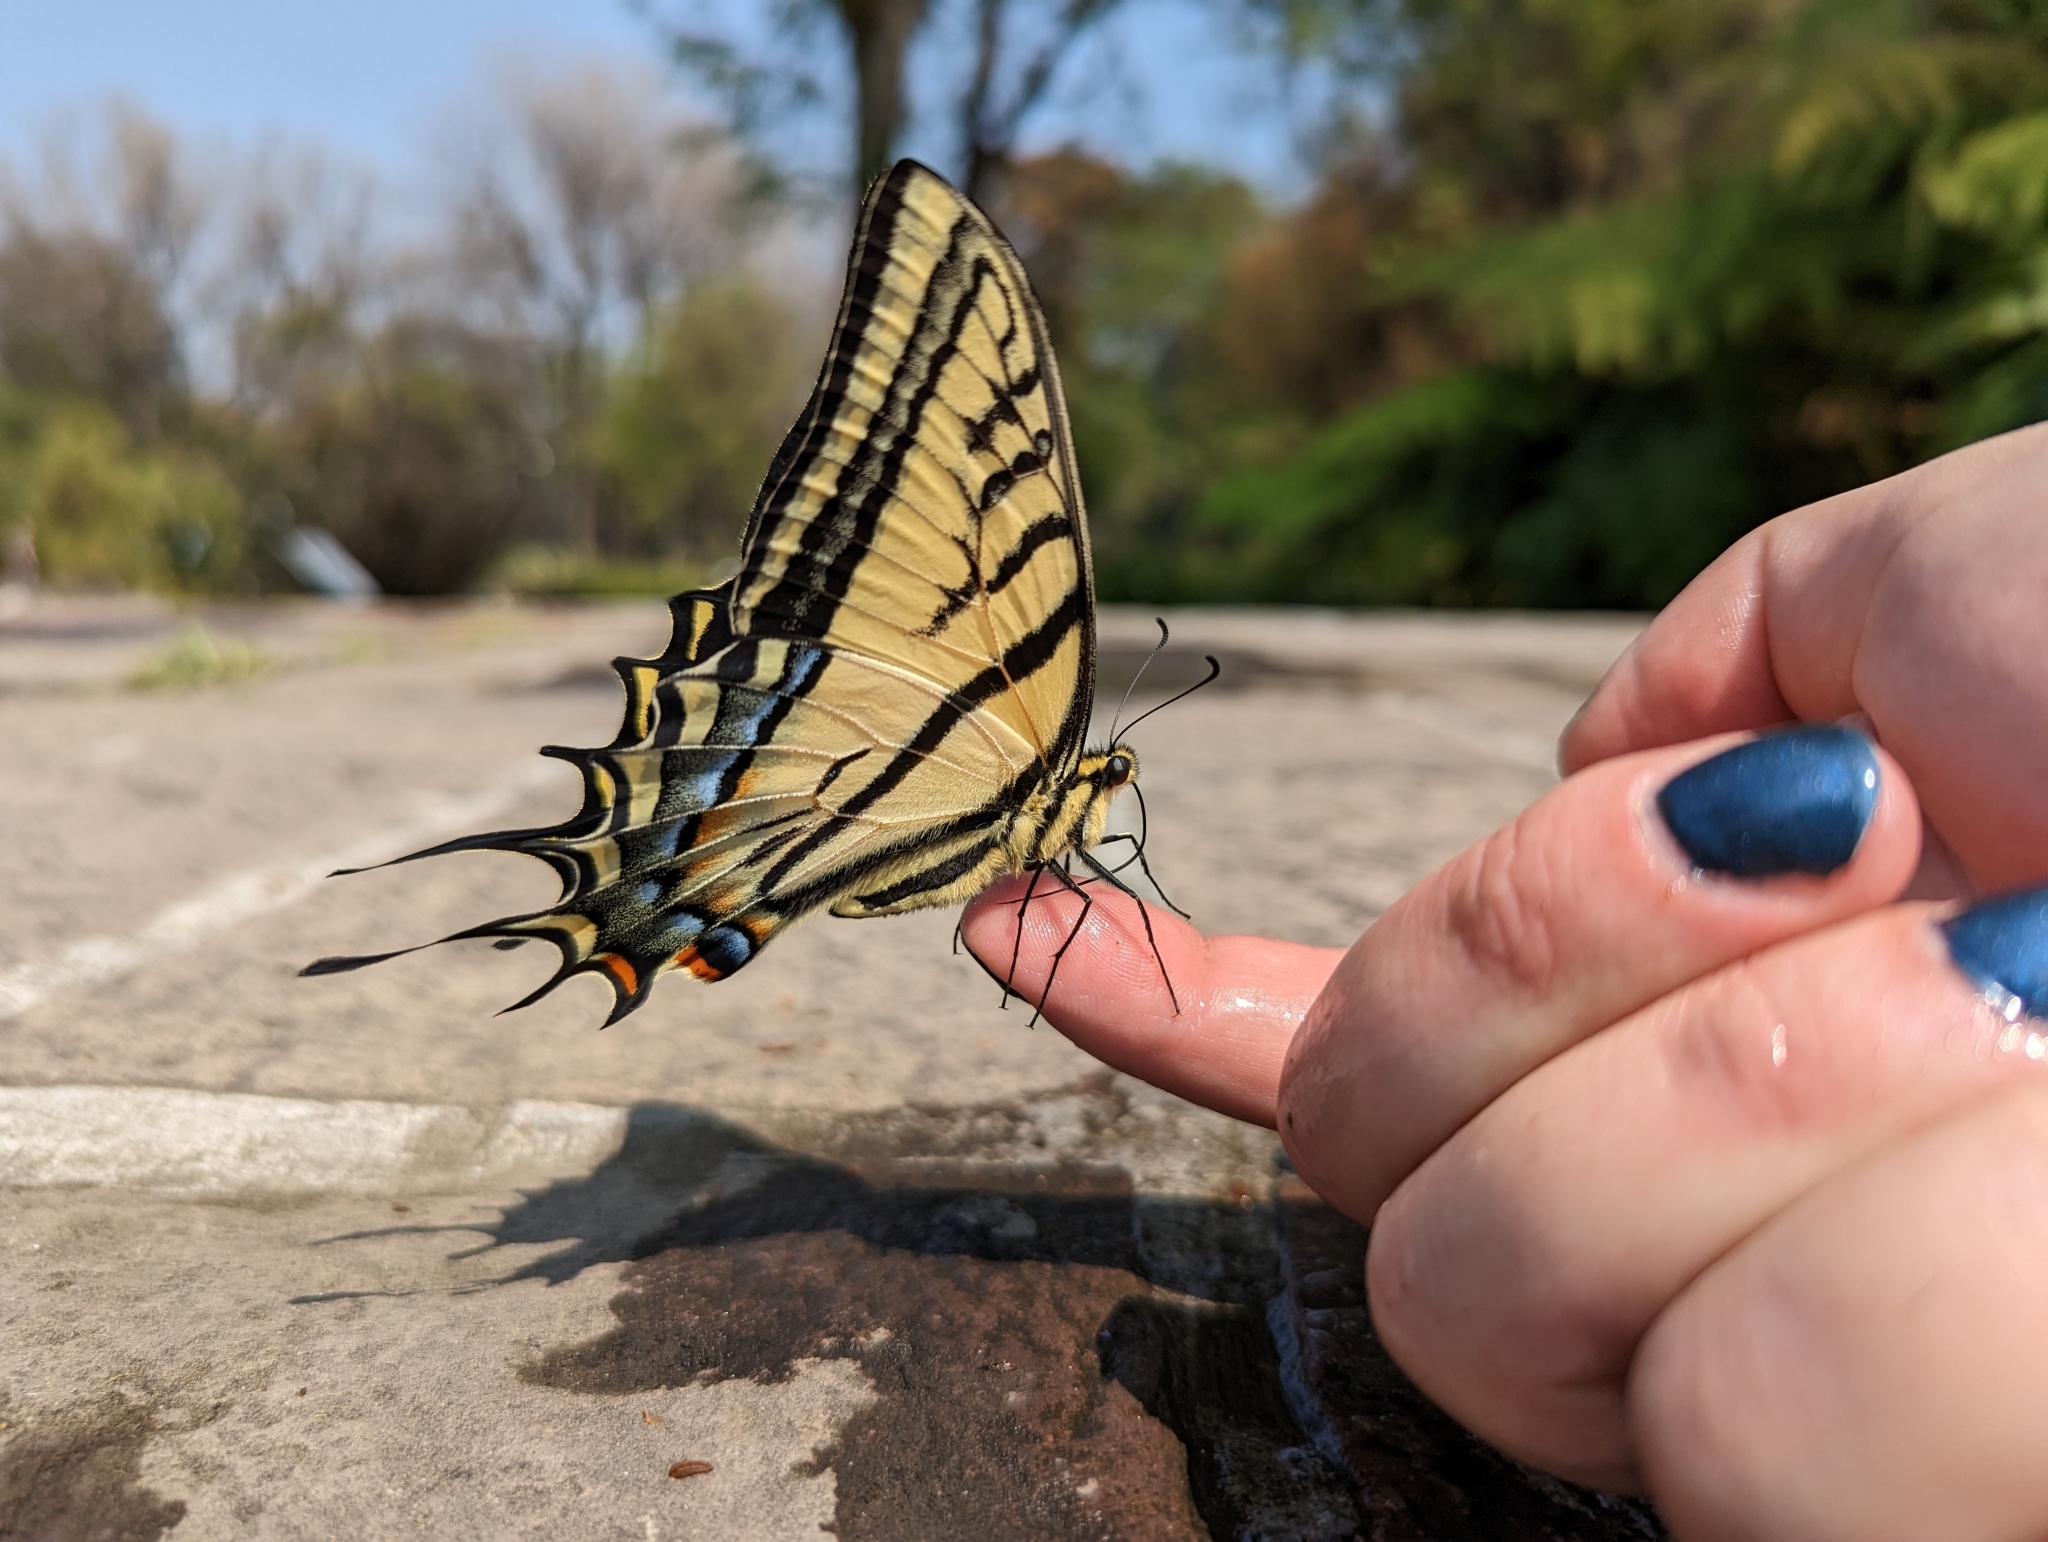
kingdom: Animalia
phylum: Arthropoda
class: Insecta
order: Lepidoptera
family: Papilionidae
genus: Papilio
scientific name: Papilio multicaudata
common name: Two-tailed tiger swallowtail
